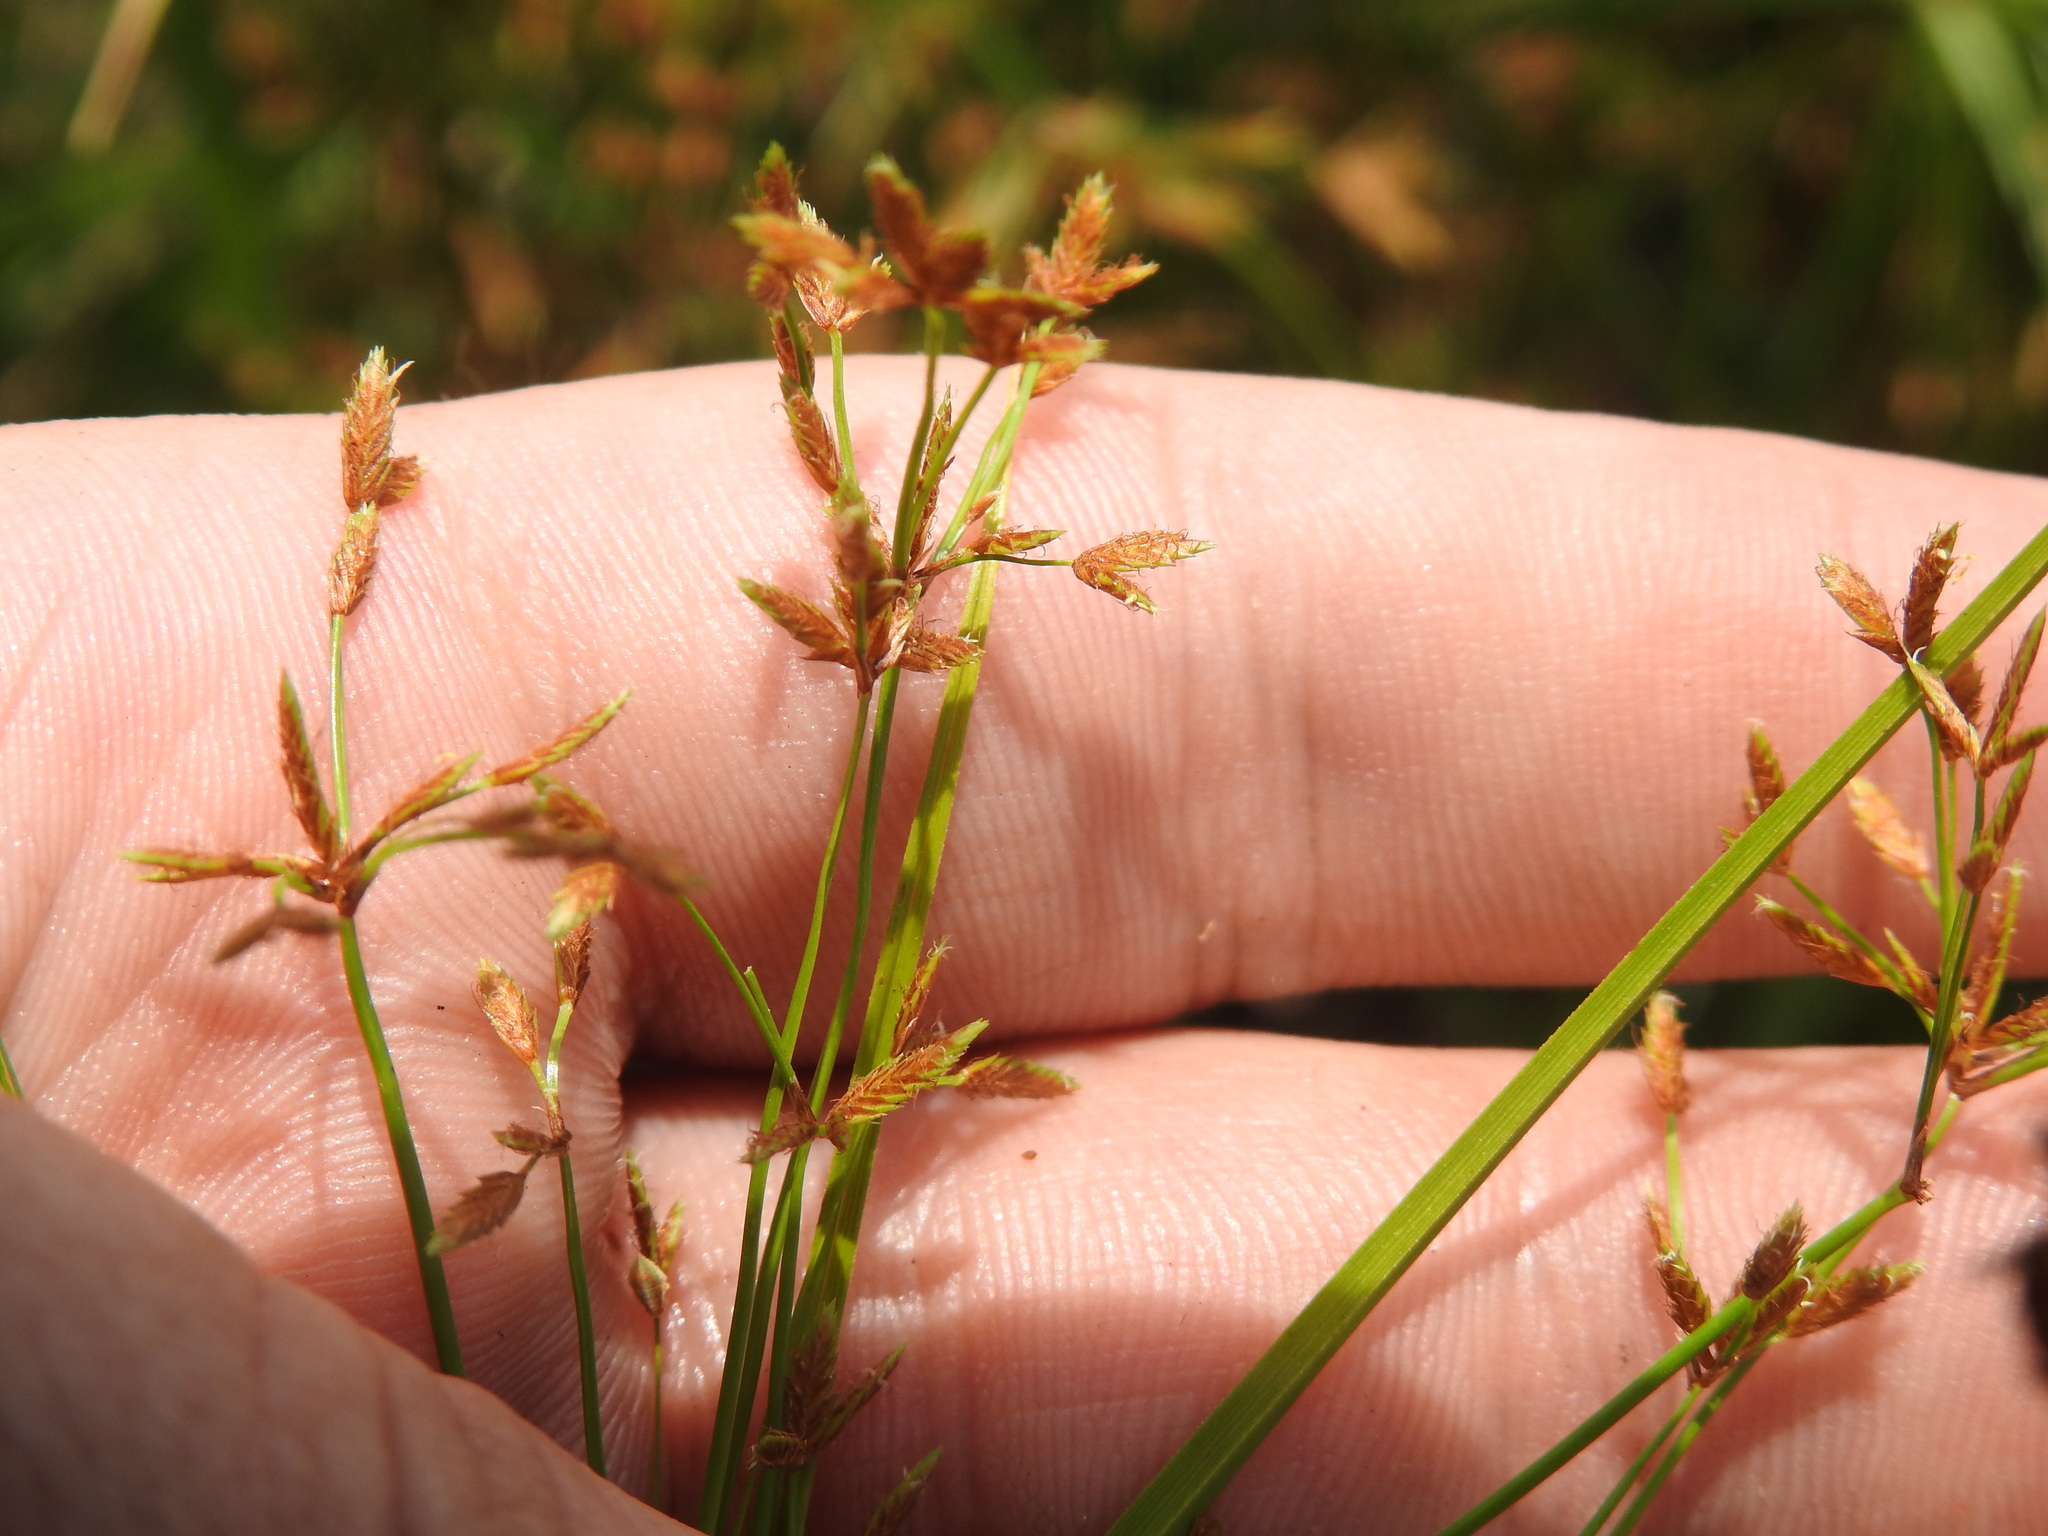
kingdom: Plantae
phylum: Tracheophyta
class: Liliopsida
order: Poales
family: Cyperaceae
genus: Cyperus
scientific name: Cyperus leptocladus
